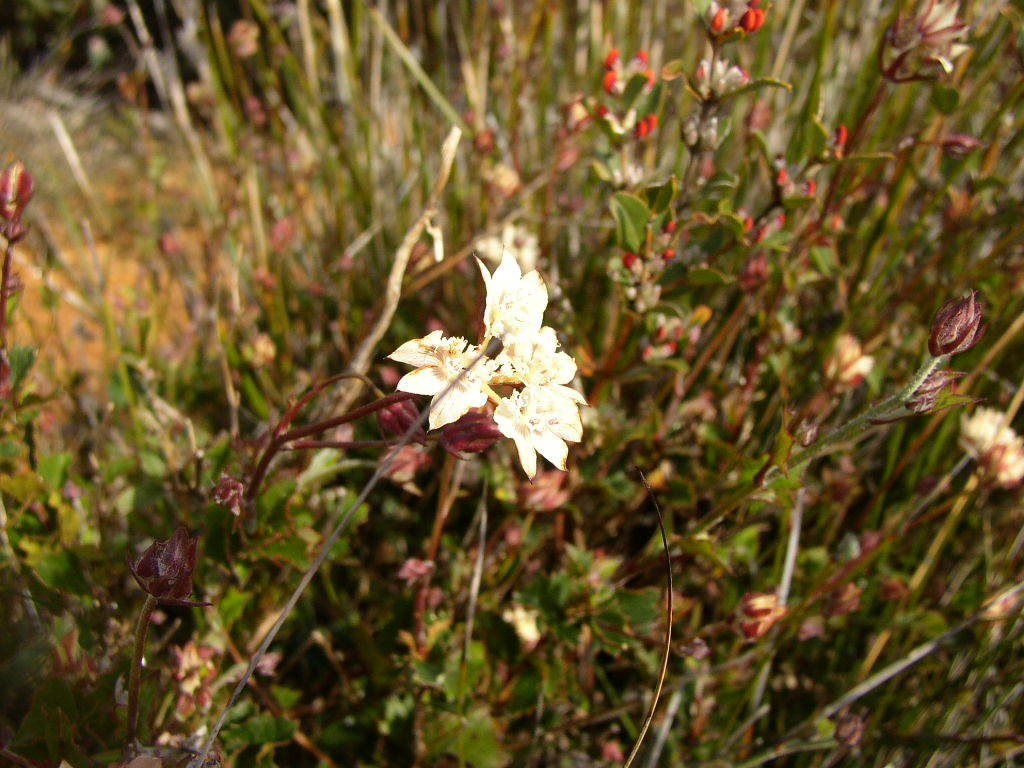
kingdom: Plantae
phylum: Tracheophyta
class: Magnoliopsida
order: Apiales
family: Apiaceae
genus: Xanthosia
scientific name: Xanthosia rotundifolia
